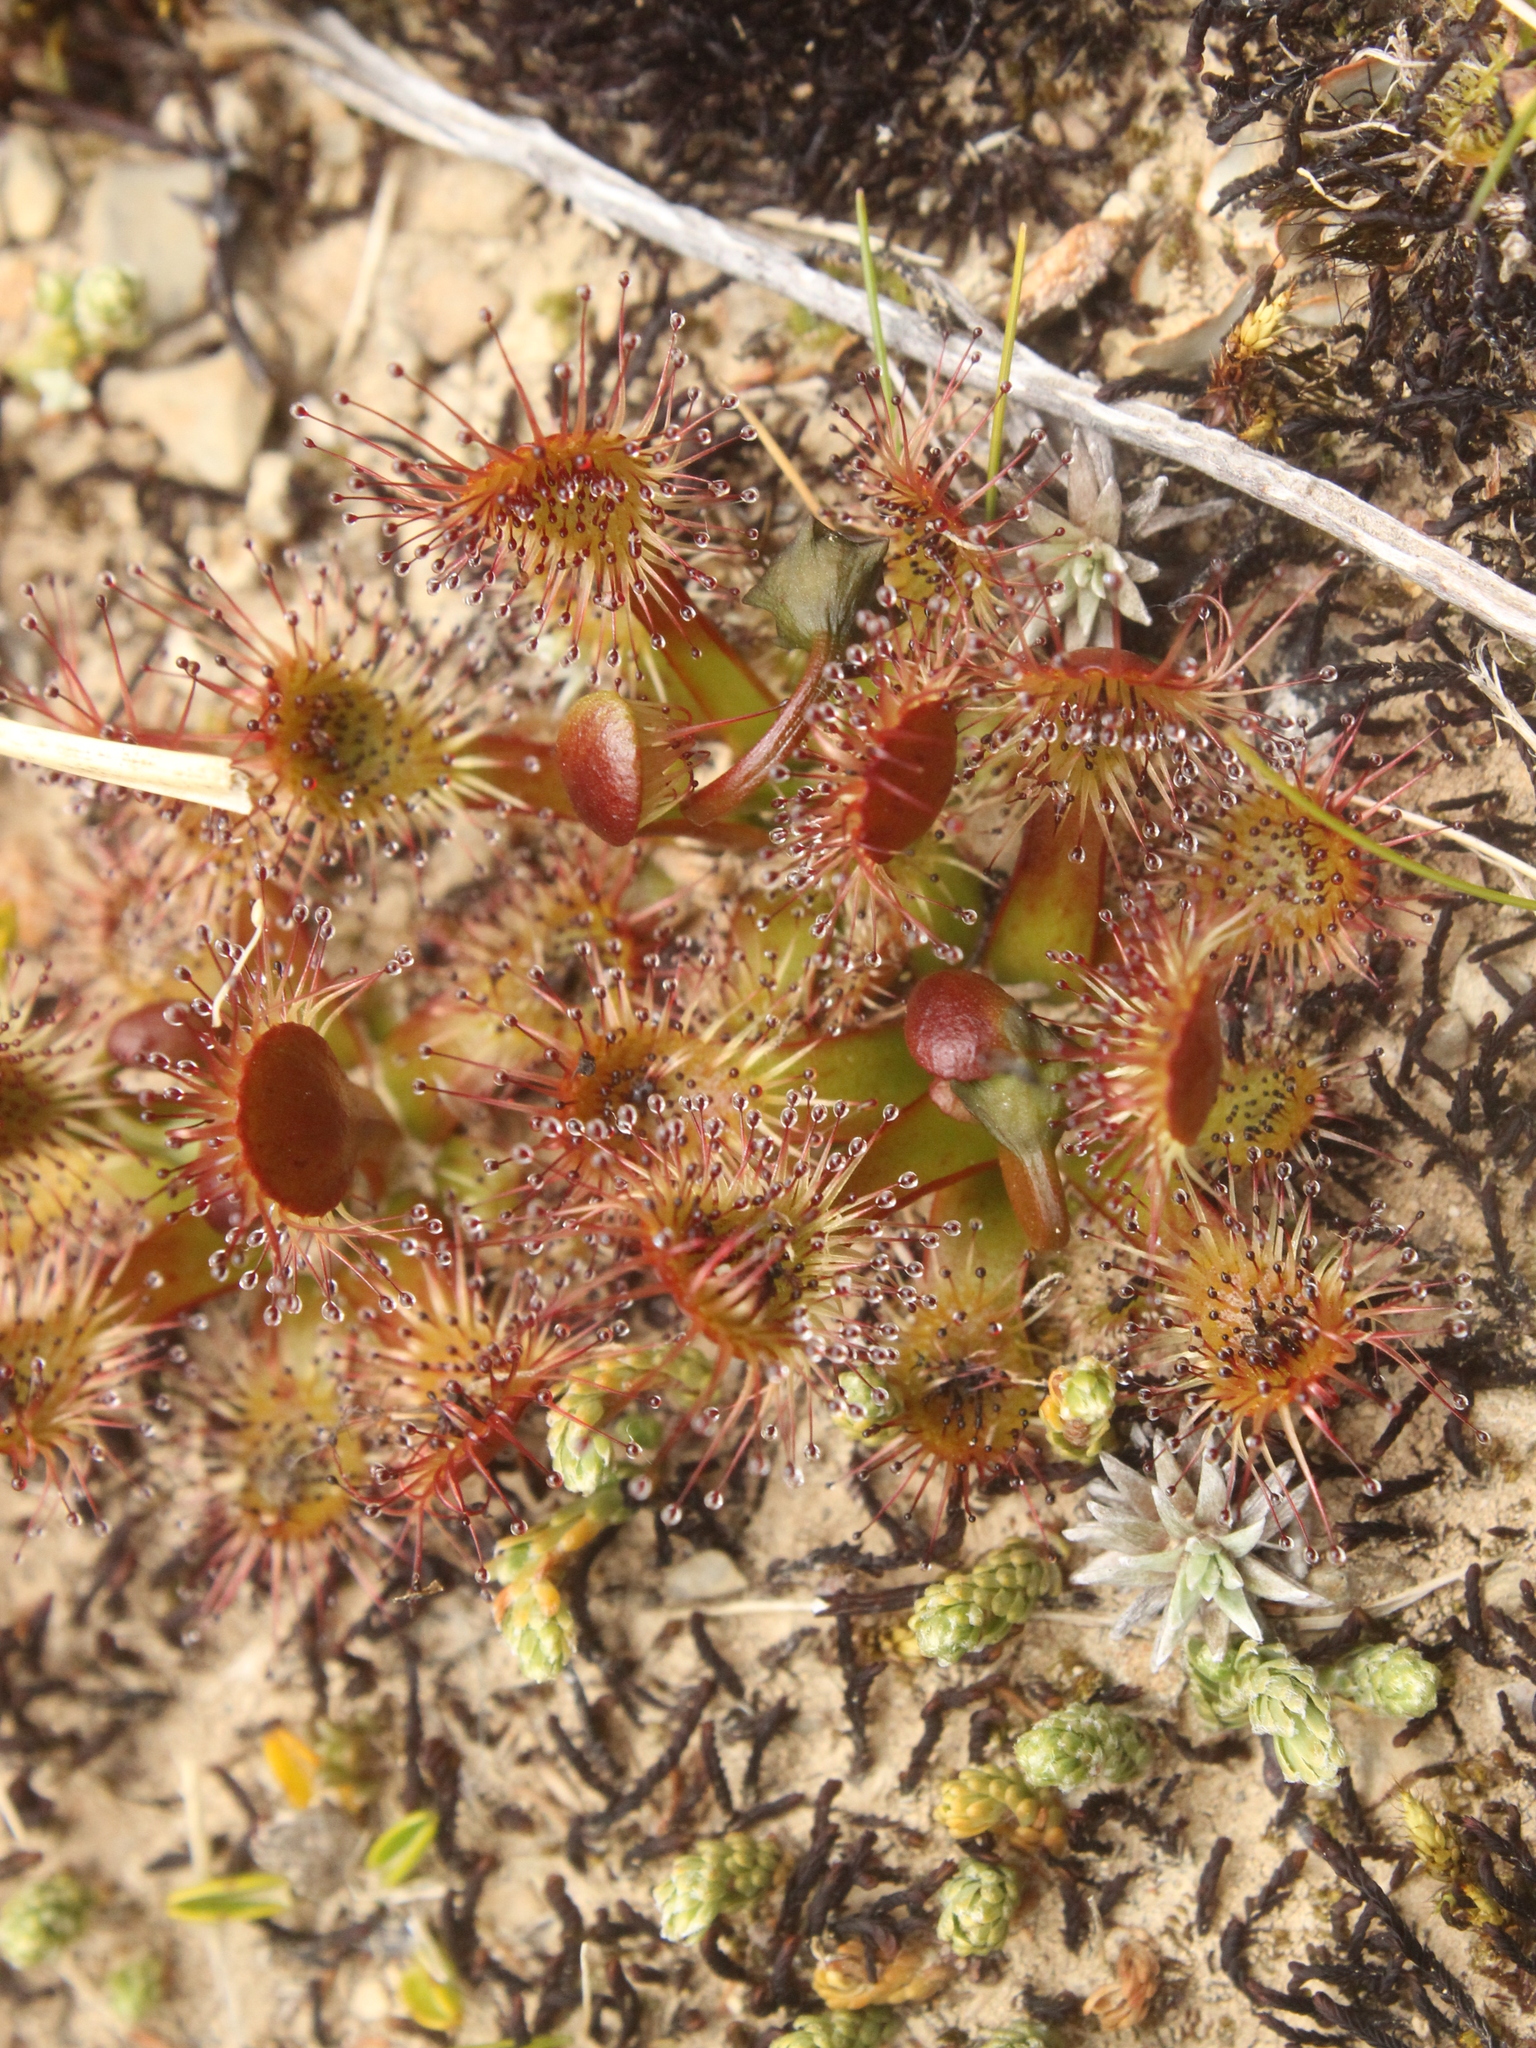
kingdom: Plantae
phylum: Tracheophyta
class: Magnoliopsida
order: Caryophyllales
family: Droseraceae
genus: Drosera
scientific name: Drosera stenopetala
